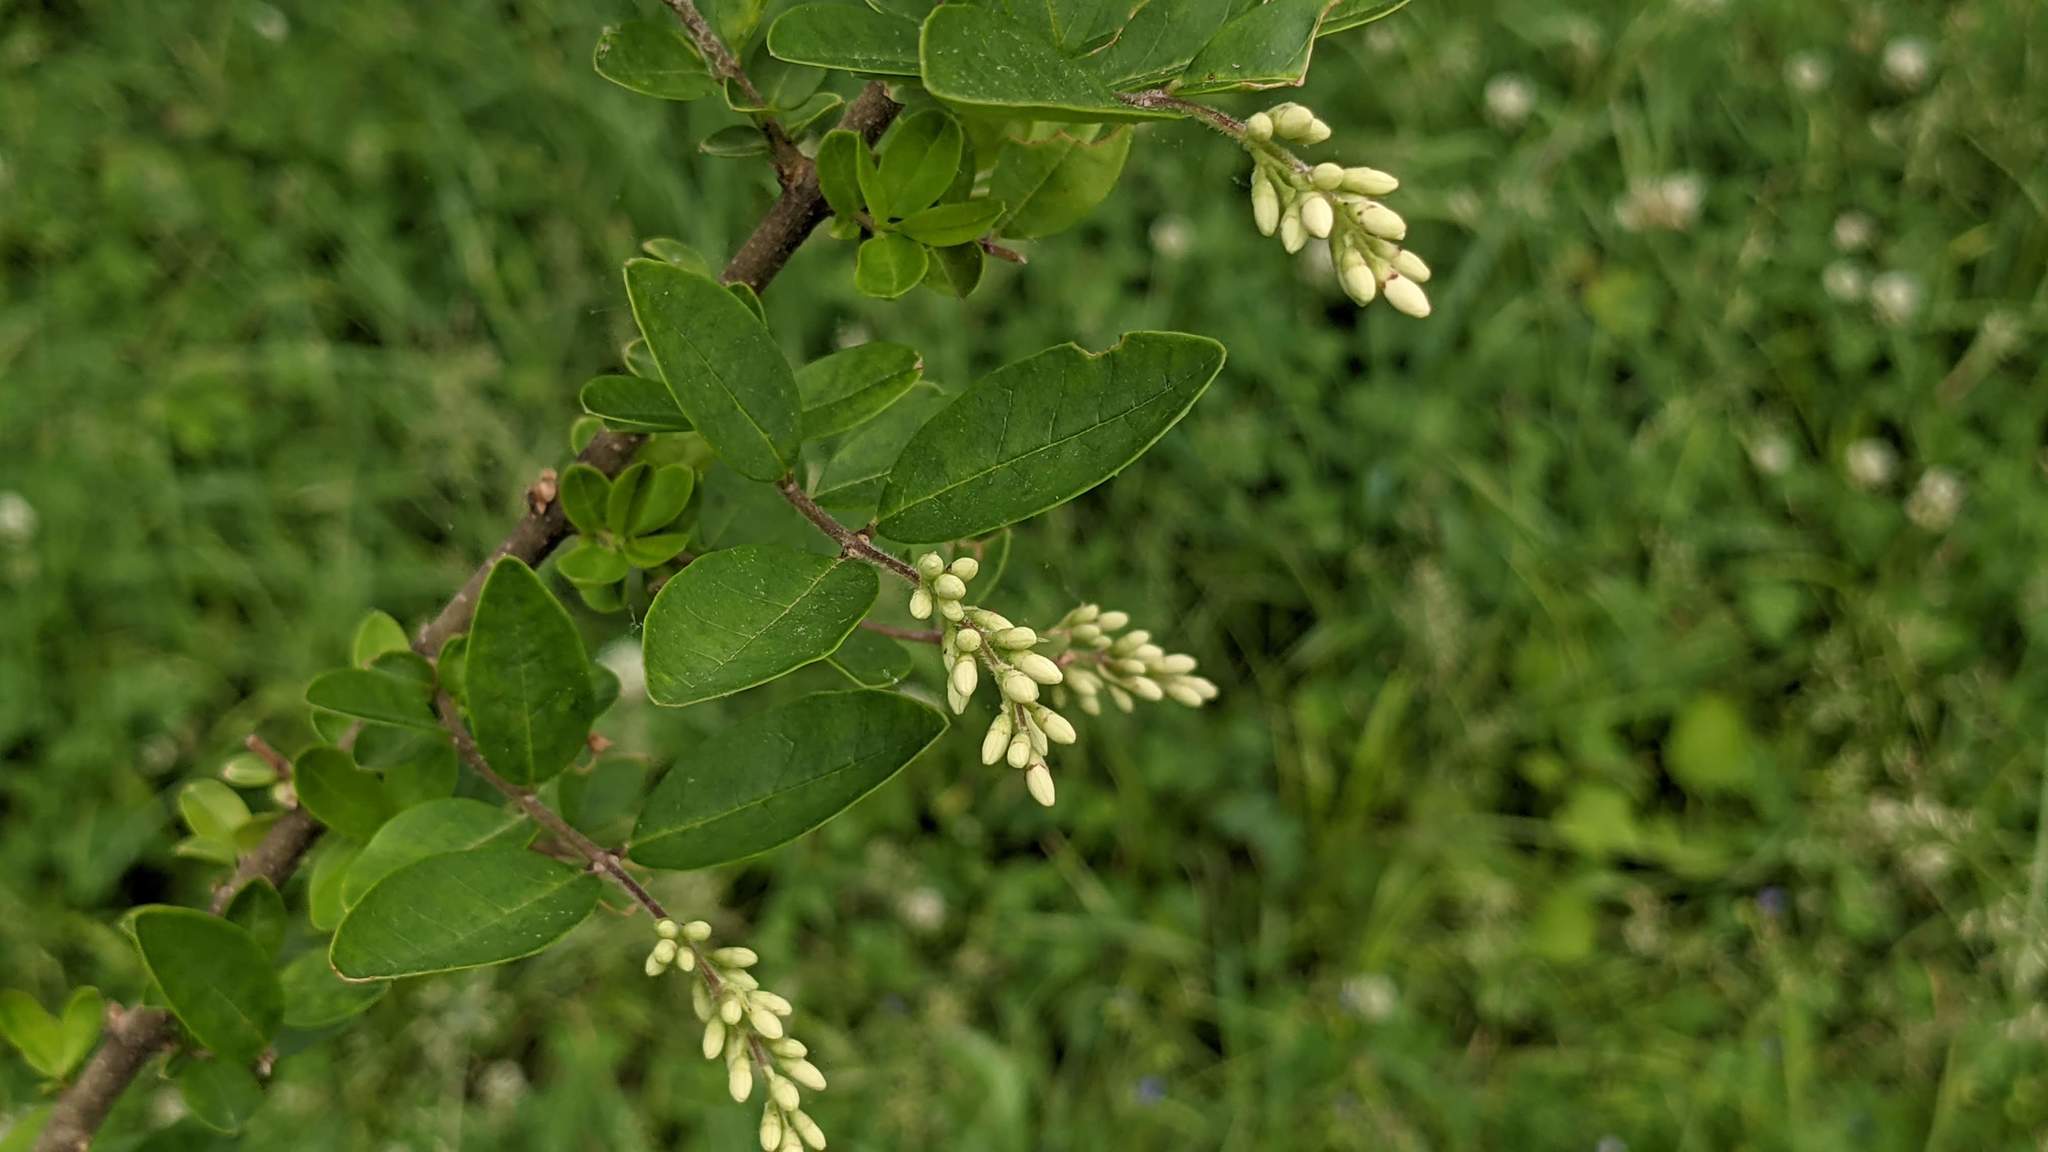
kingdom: Plantae
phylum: Tracheophyta
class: Magnoliopsida
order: Lamiales
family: Oleaceae
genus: Ligustrum
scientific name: Ligustrum obtusifolium
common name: Border privet
